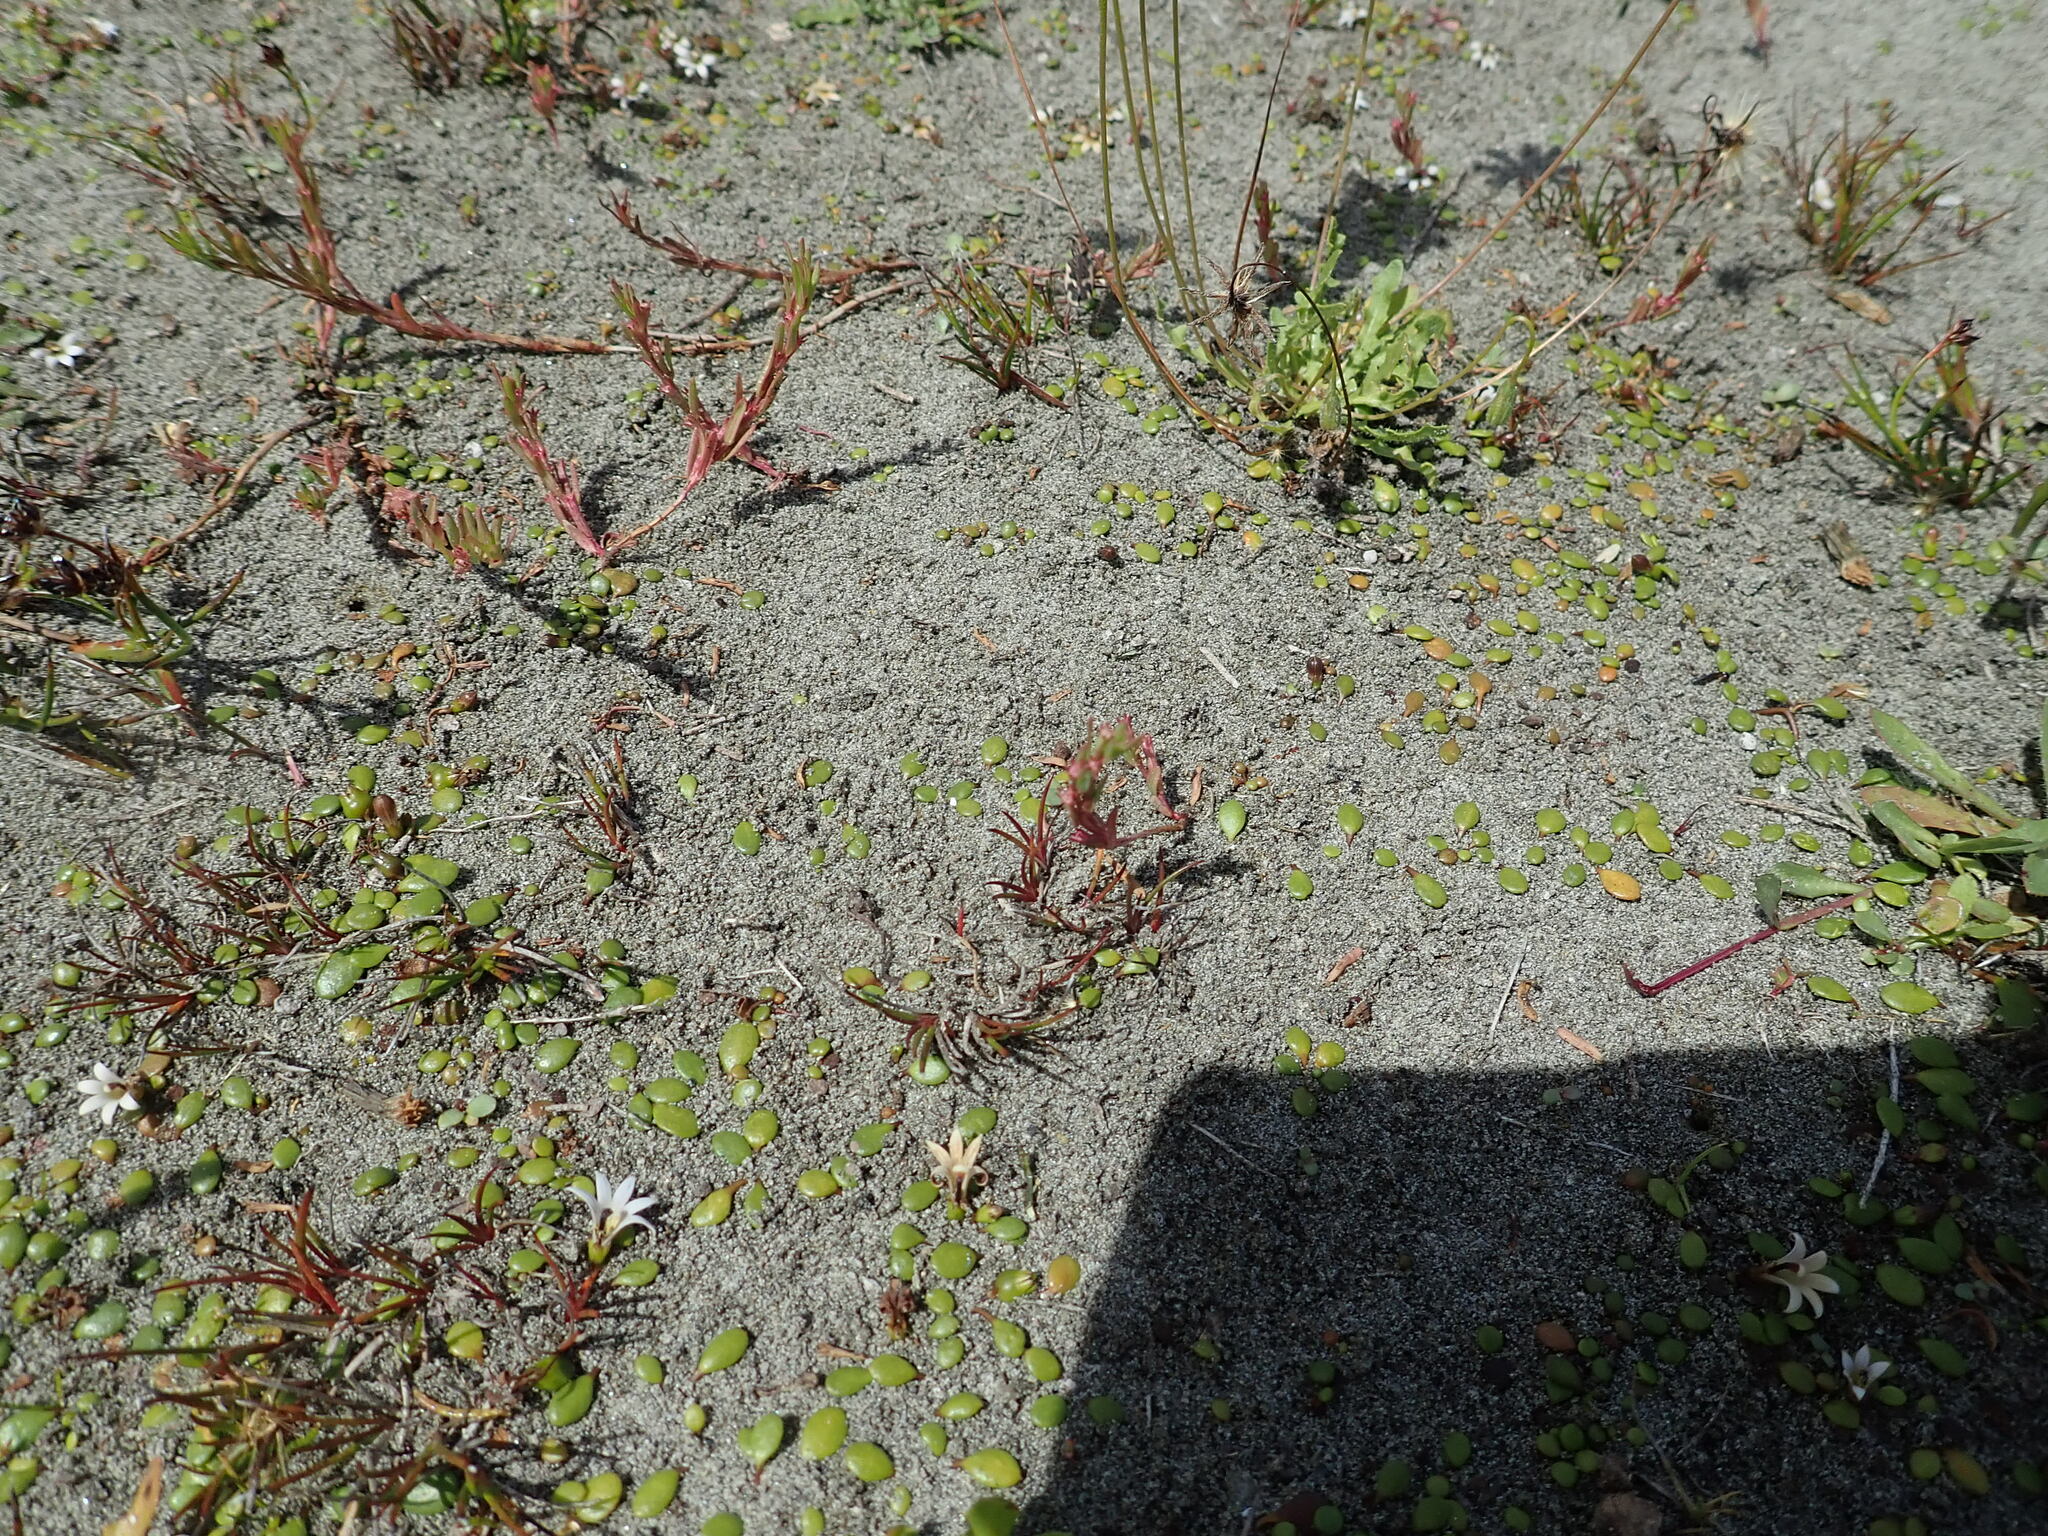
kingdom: Animalia
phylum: Arthropoda
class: Insecta
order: Coleoptera
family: Carabidae
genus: Neocicindela
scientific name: Neocicindela tuberculata
